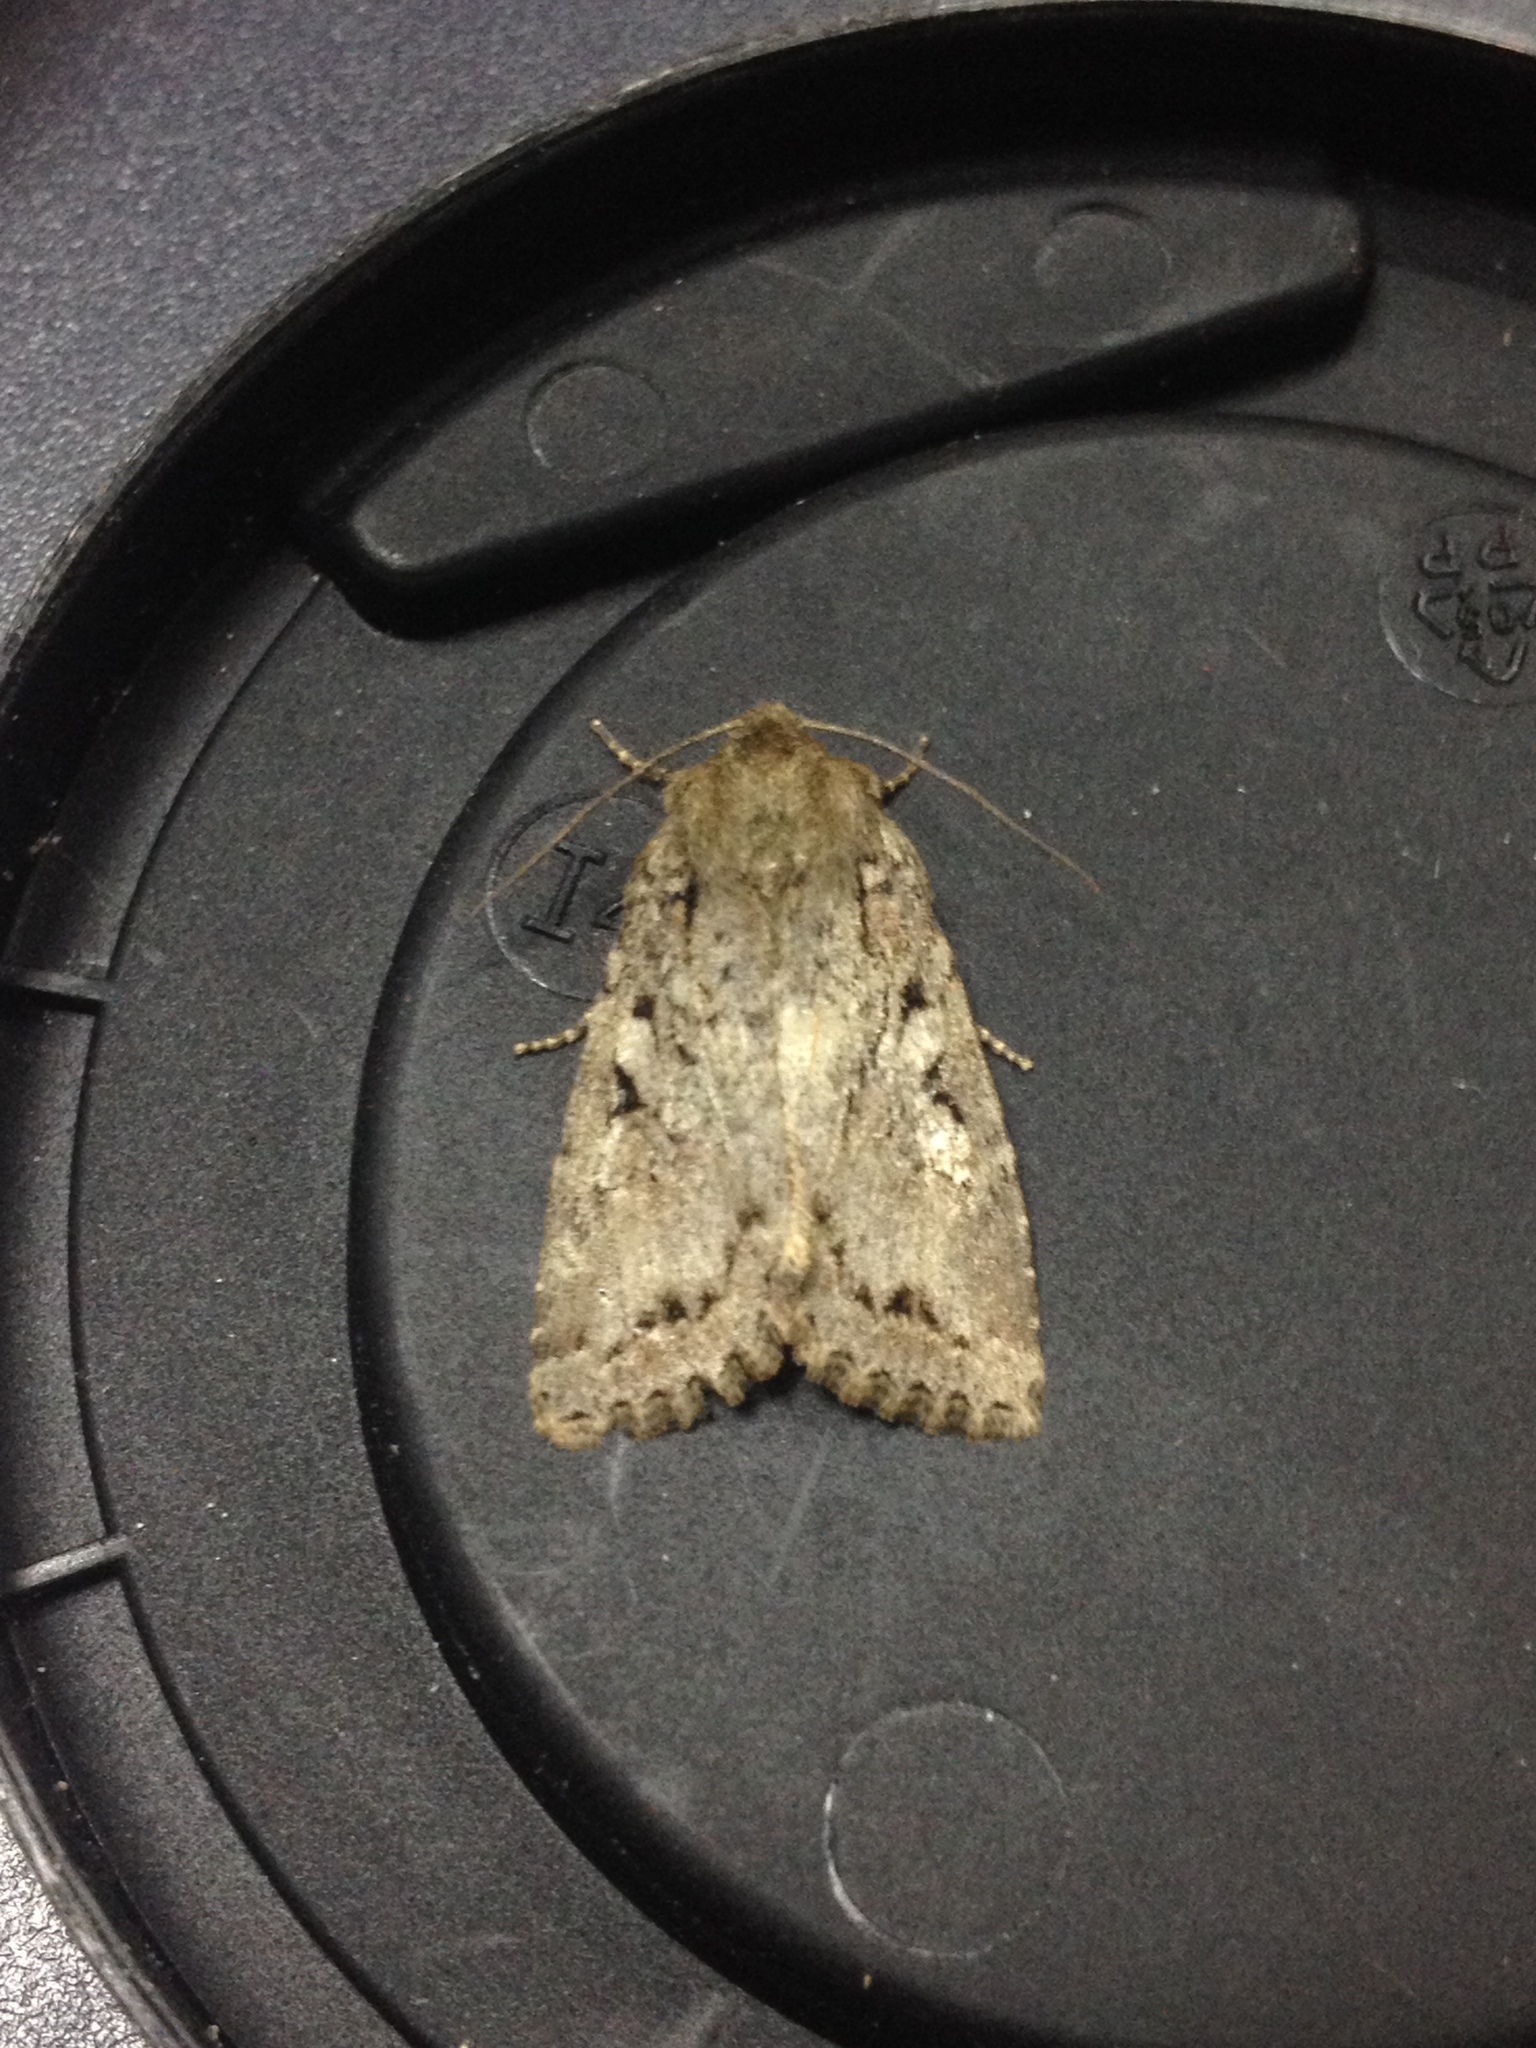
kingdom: Animalia
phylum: Arthropoda
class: Insecta
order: Lepidoptera
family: Noctuidae
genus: Apterogenum
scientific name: Apterogenum ypsillon
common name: Dingy shears
